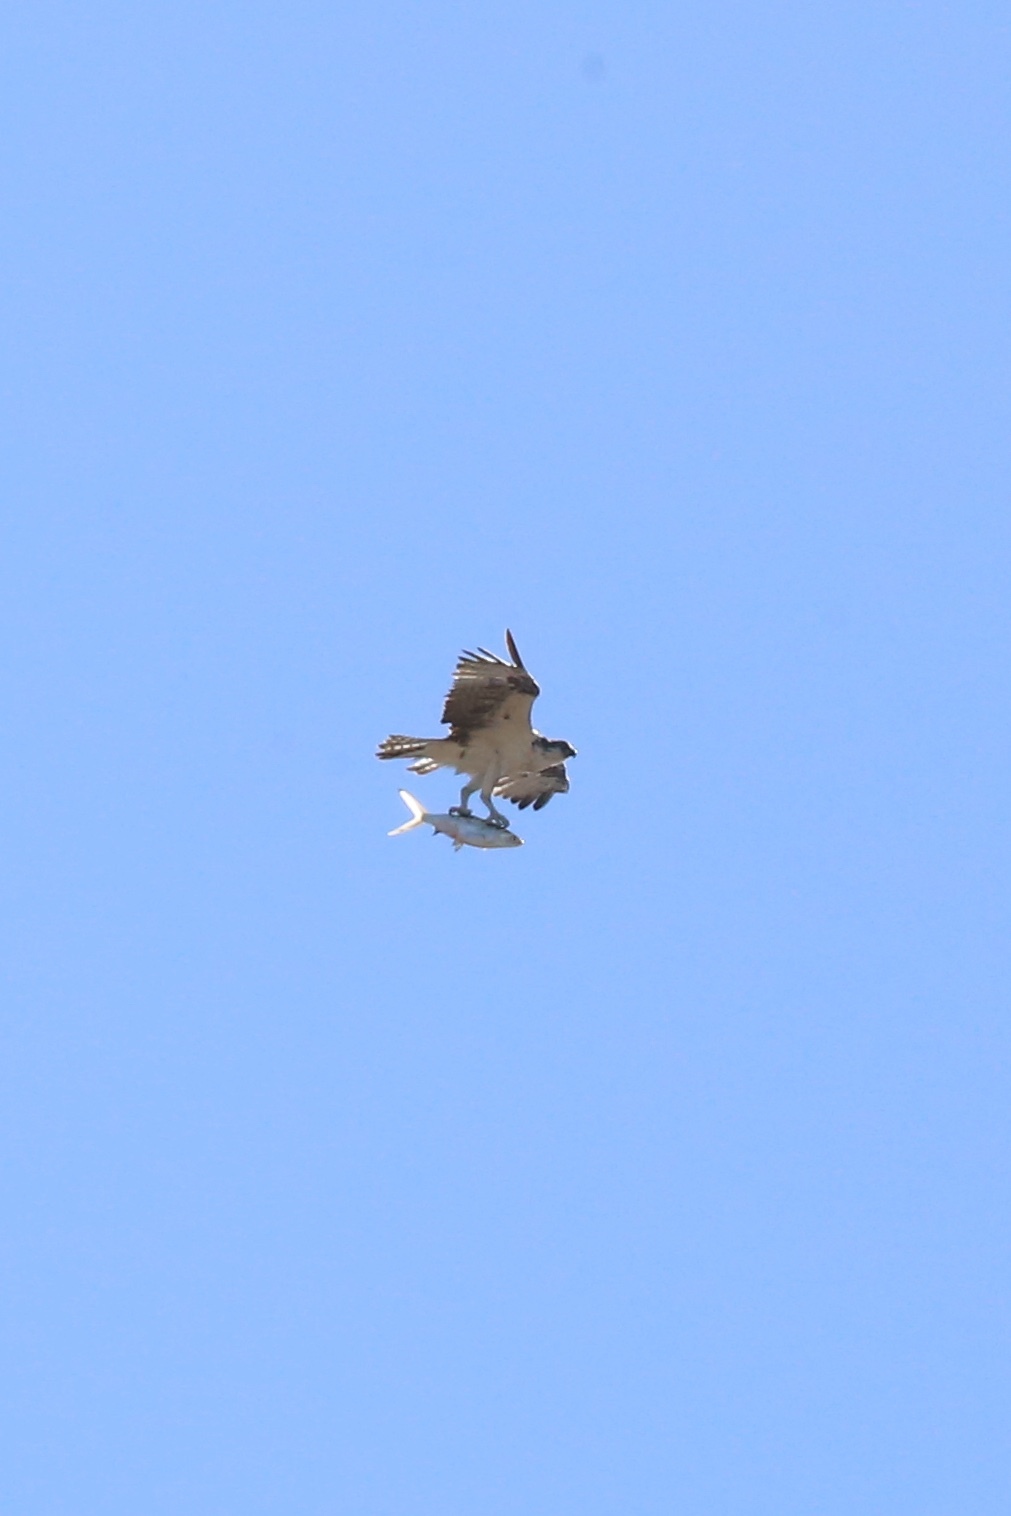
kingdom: Animalia
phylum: Chordata
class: Aves
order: Accipitriformes
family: Pandionidae
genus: Pandion
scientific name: Pandion haliaetus
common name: Osprey
